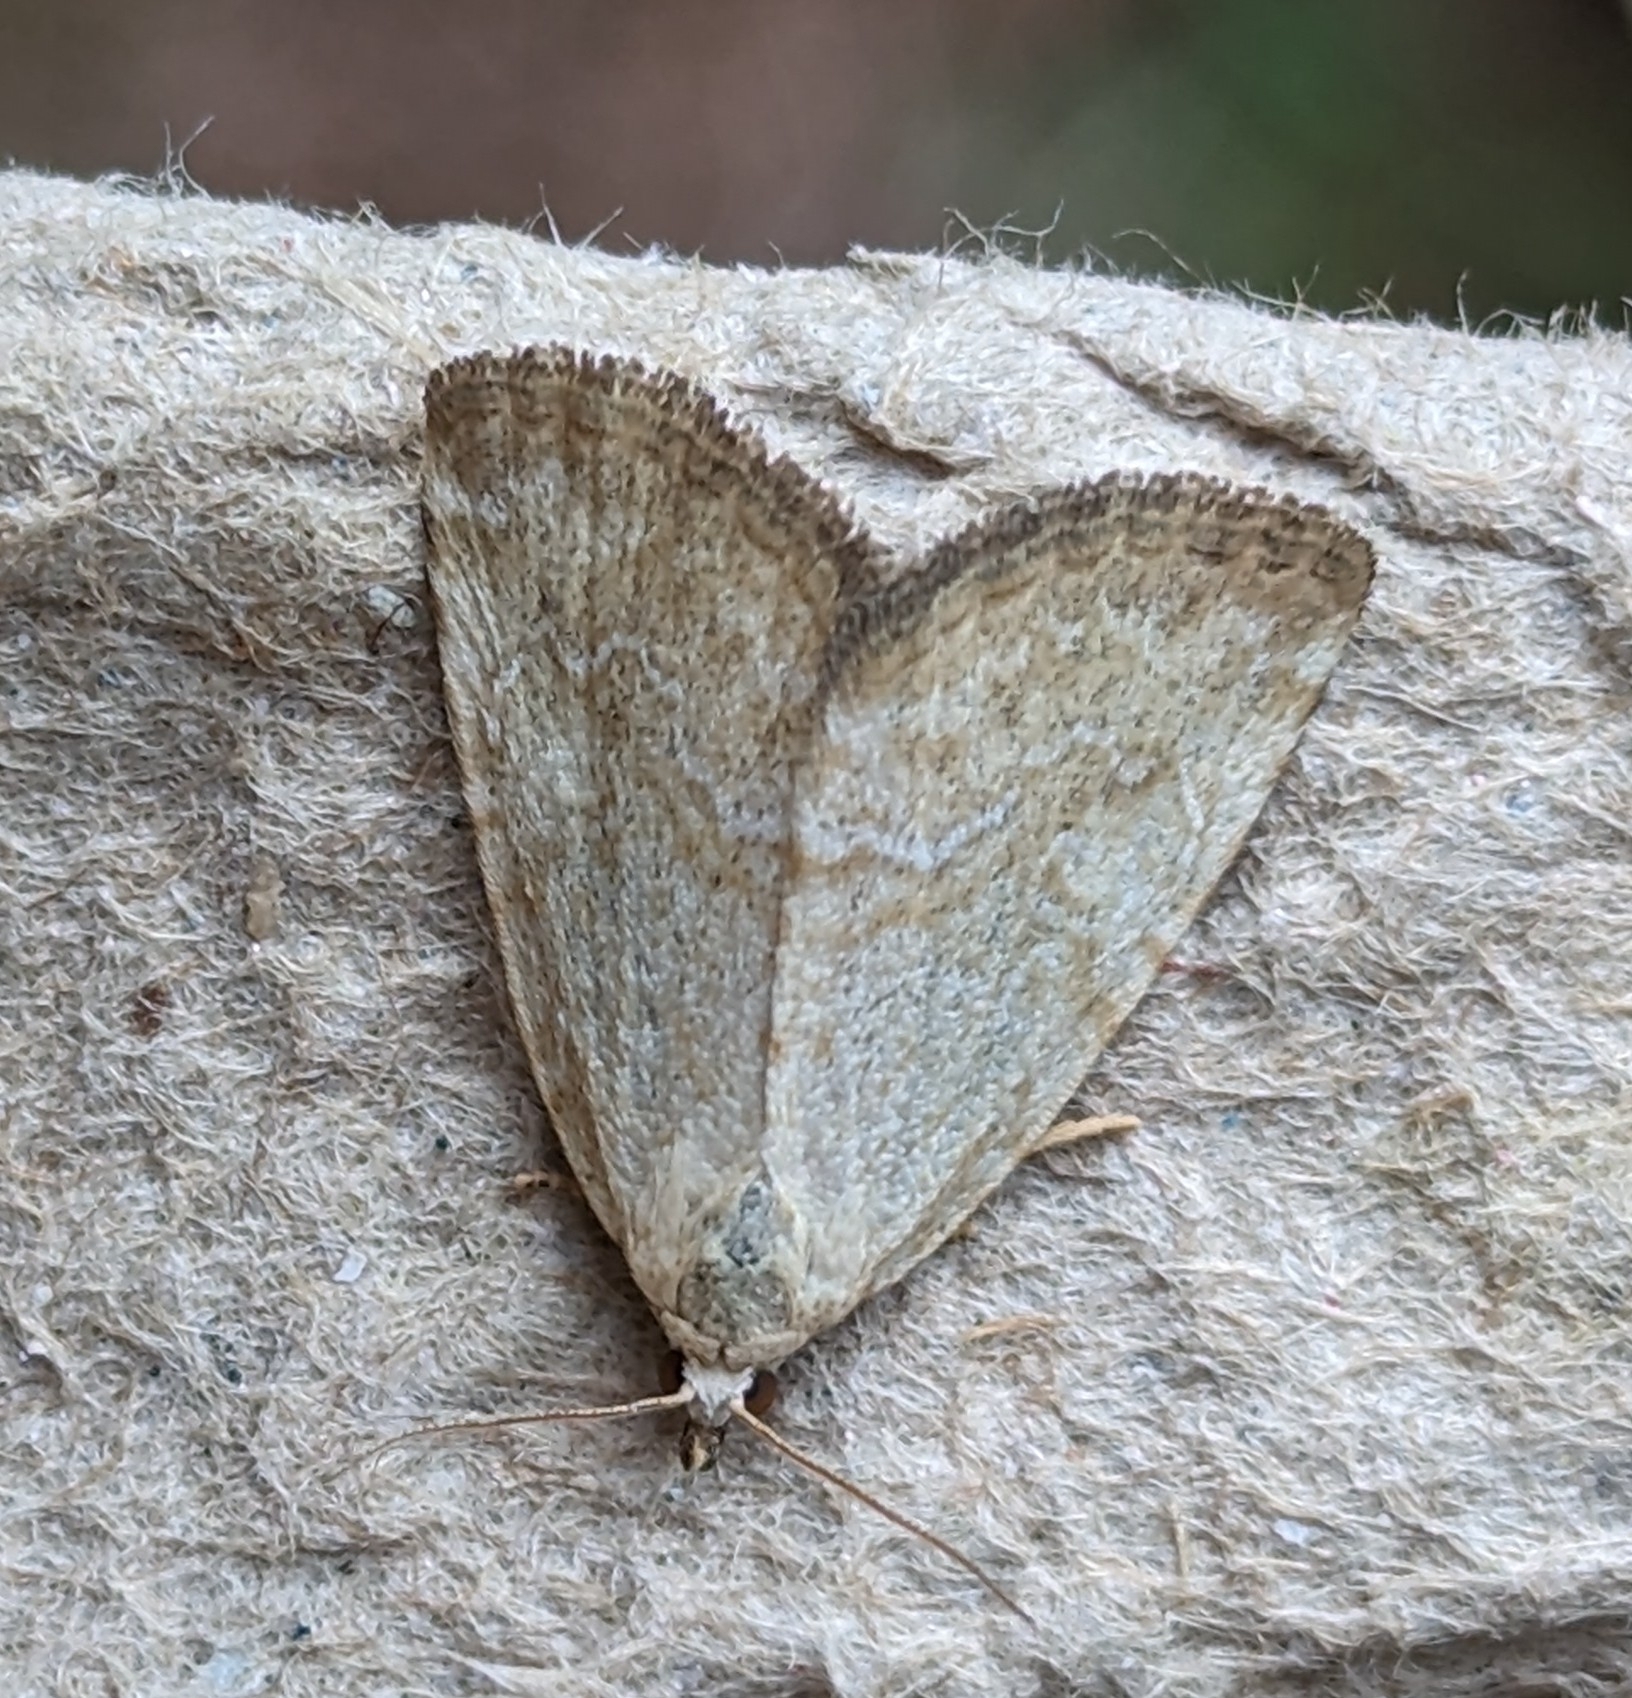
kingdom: Animalia
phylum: Arthropoda
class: Insecta
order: Lepidoptera
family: Noctuidae
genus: Protodeltote
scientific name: Protodeltote albidula
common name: Pale glyph
